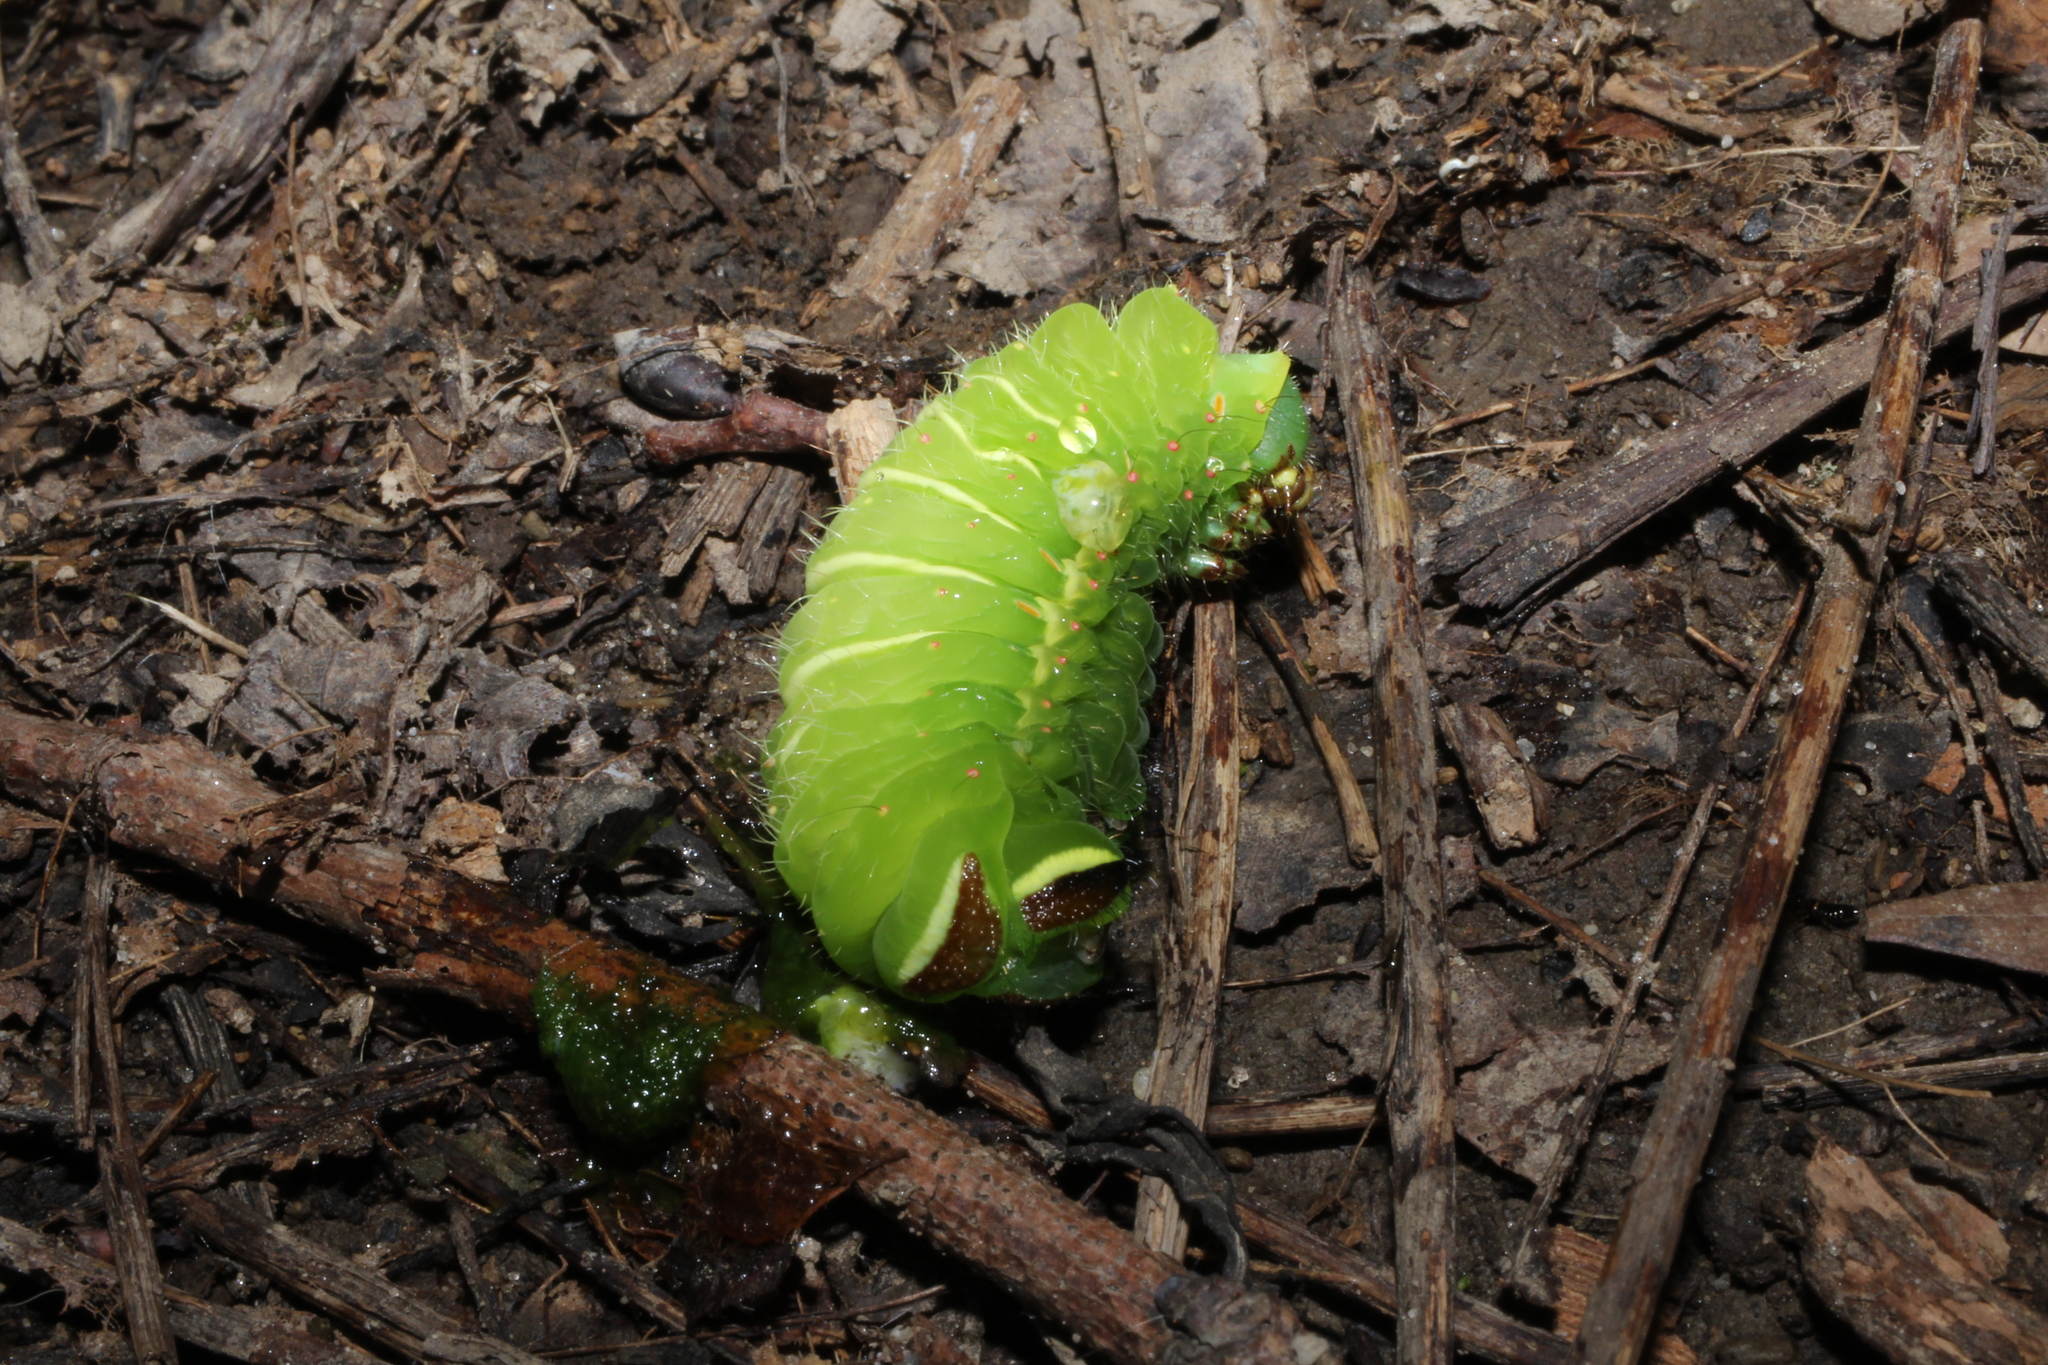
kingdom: Animalia
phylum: Arthropoda
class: Insecta
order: Lepidoptera
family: Saturniidae
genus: Actias
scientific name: Actias luna
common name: Luna moth
